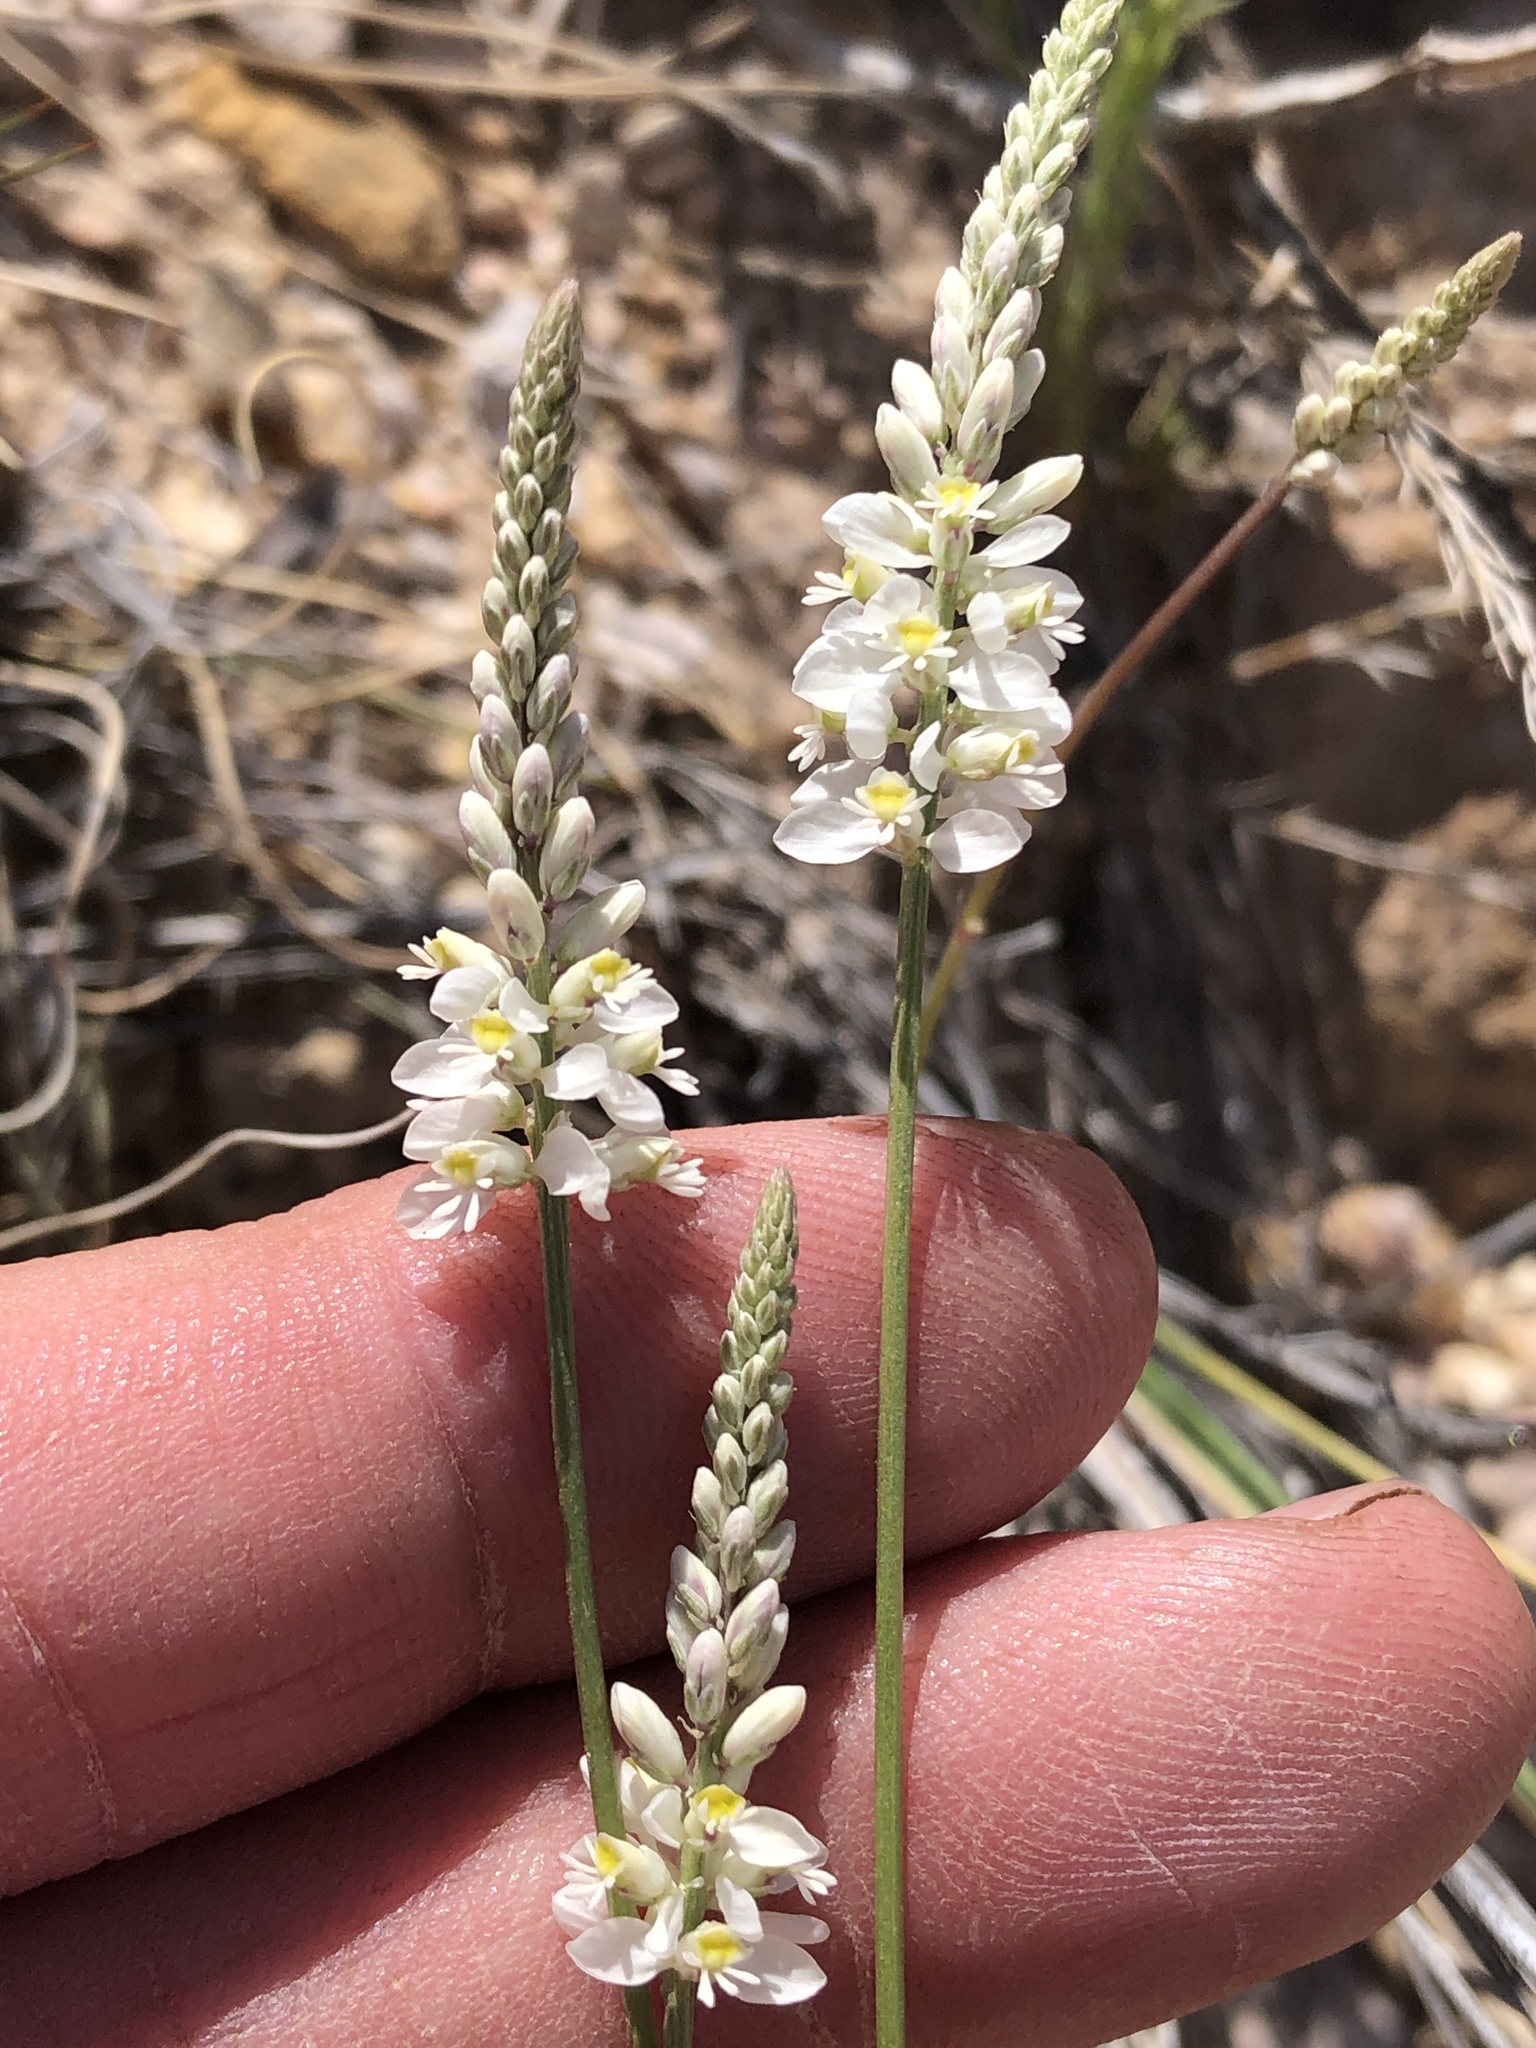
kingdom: Plantae
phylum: Tracheophyta
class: Magnoliopsida
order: Fabales
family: Polygalaceae
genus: Polygala
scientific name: Polygala alba
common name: White milkwort
